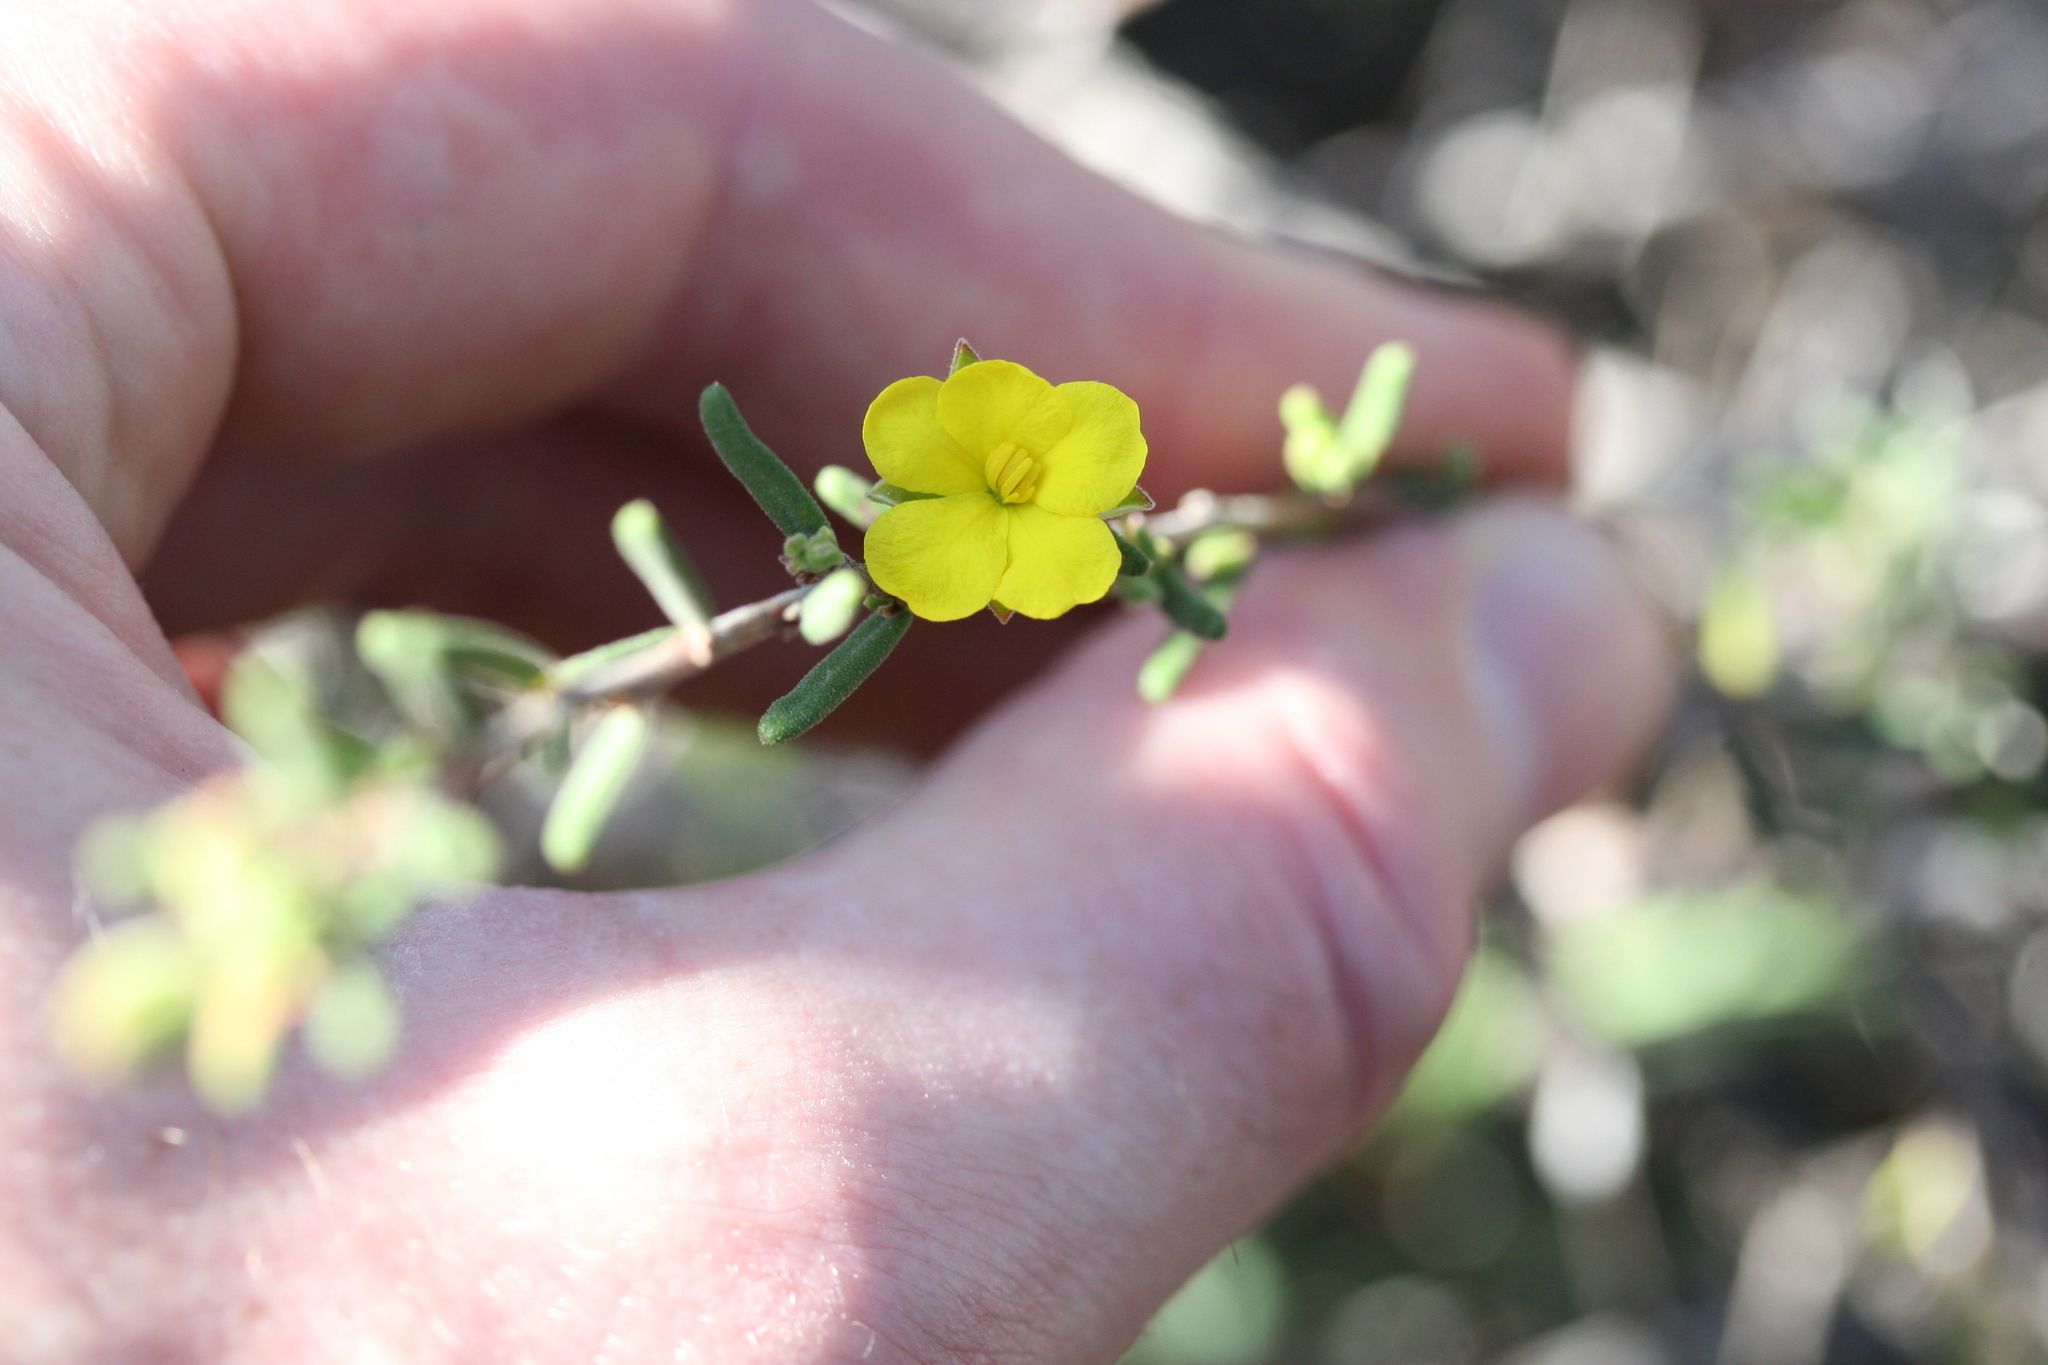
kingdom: Plantae
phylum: Tracheophyta
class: Magnoliopsida
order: Dilleniales
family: Dilleniaceae
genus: Hibbertia
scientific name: Hibbertia verrucosa
